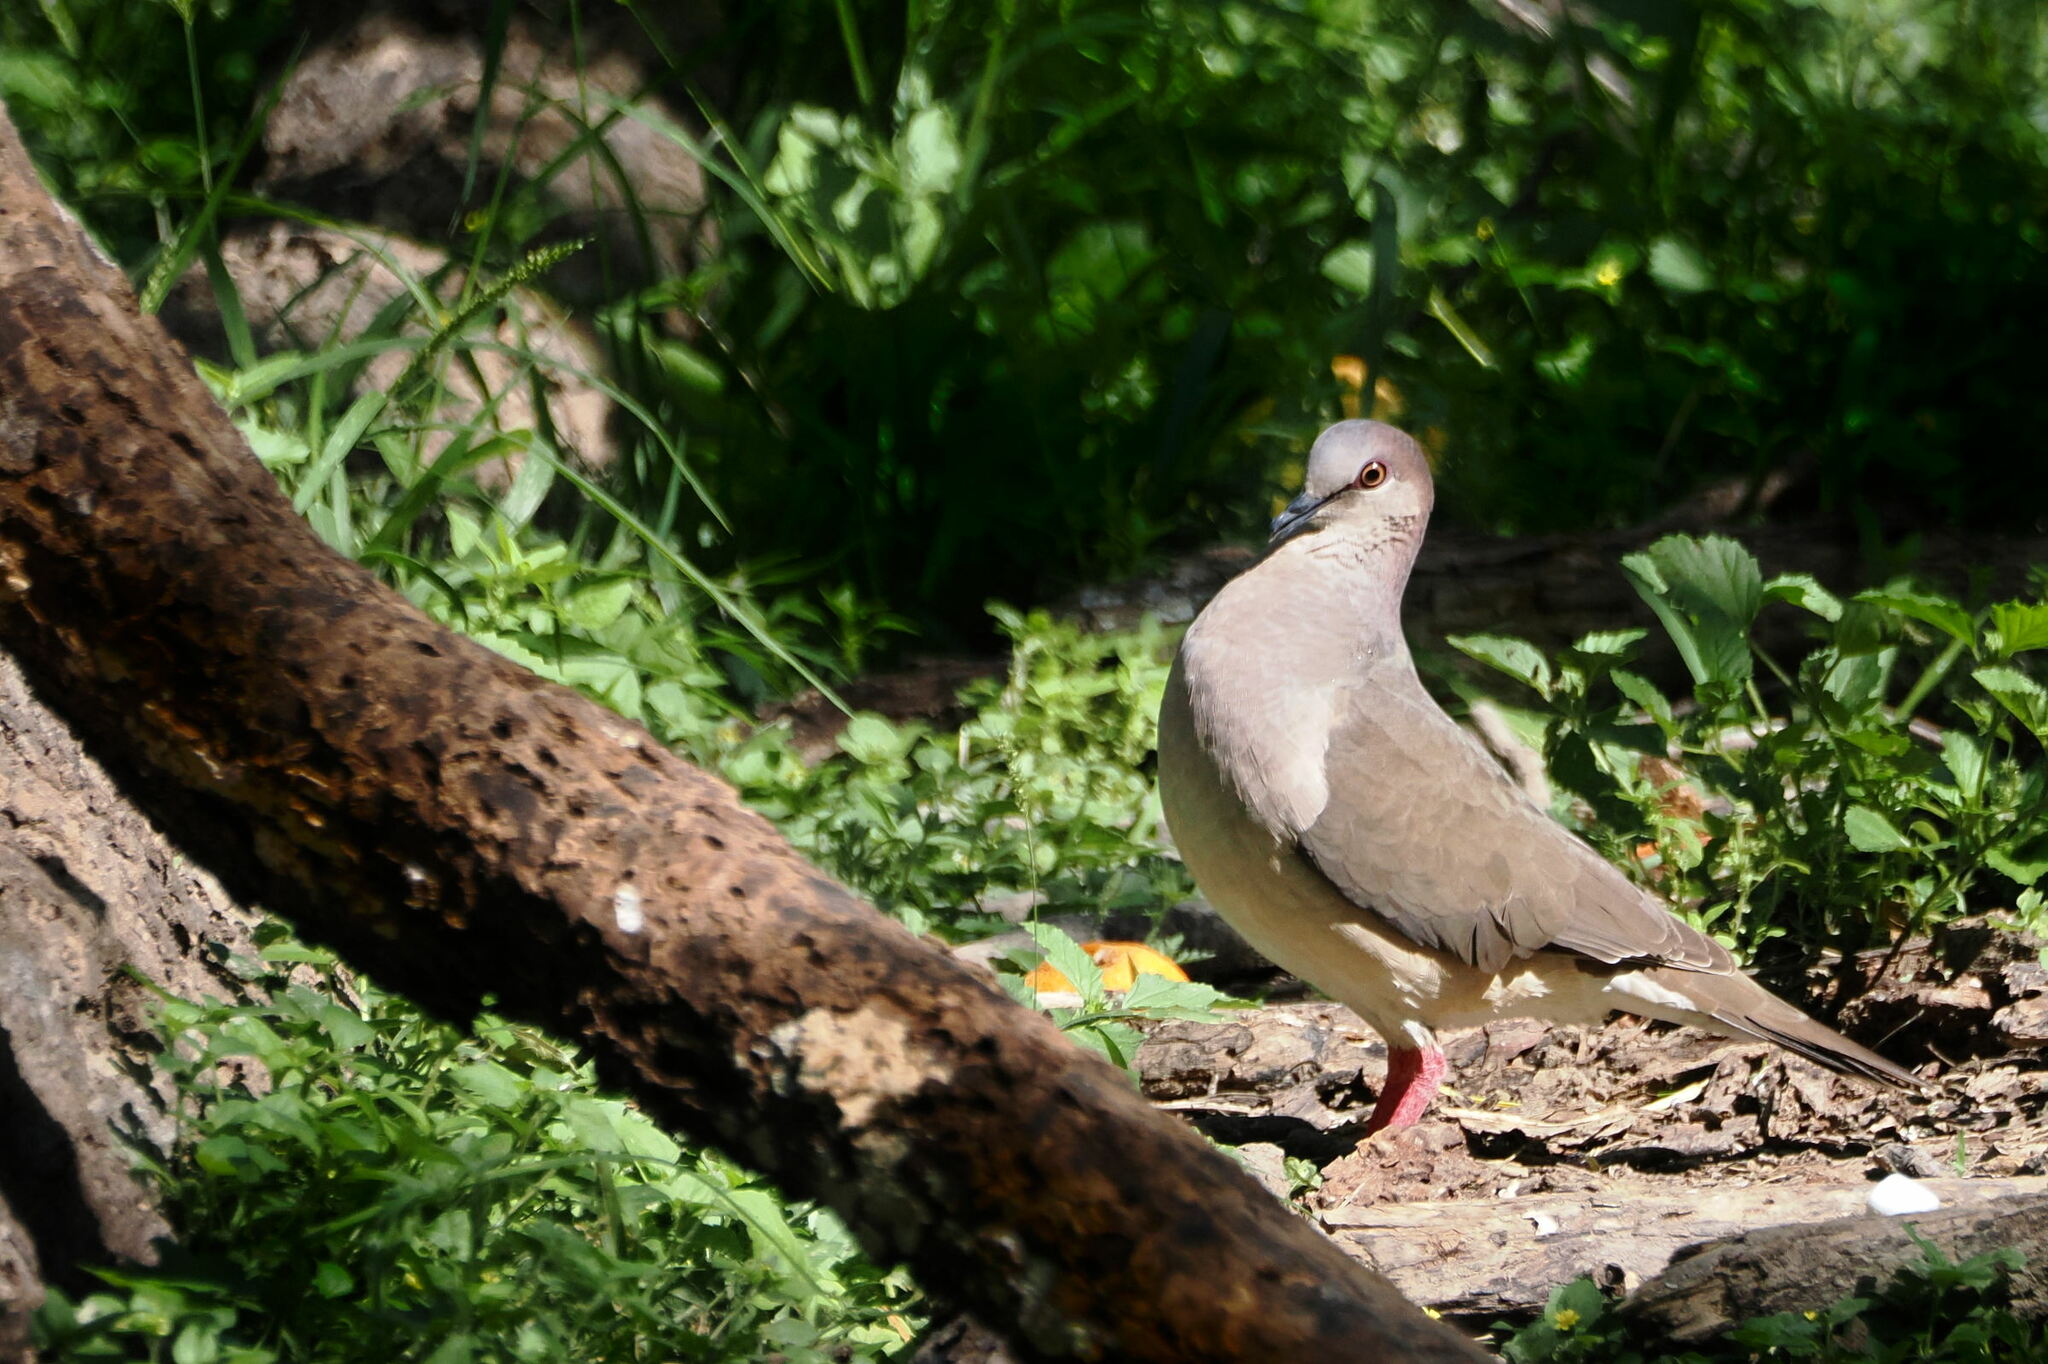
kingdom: Animalia
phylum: Chordata
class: Aves
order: Columbiformes
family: Columbidae
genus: Leptotila
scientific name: Leptotila verreauxi
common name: White-tipped dove
